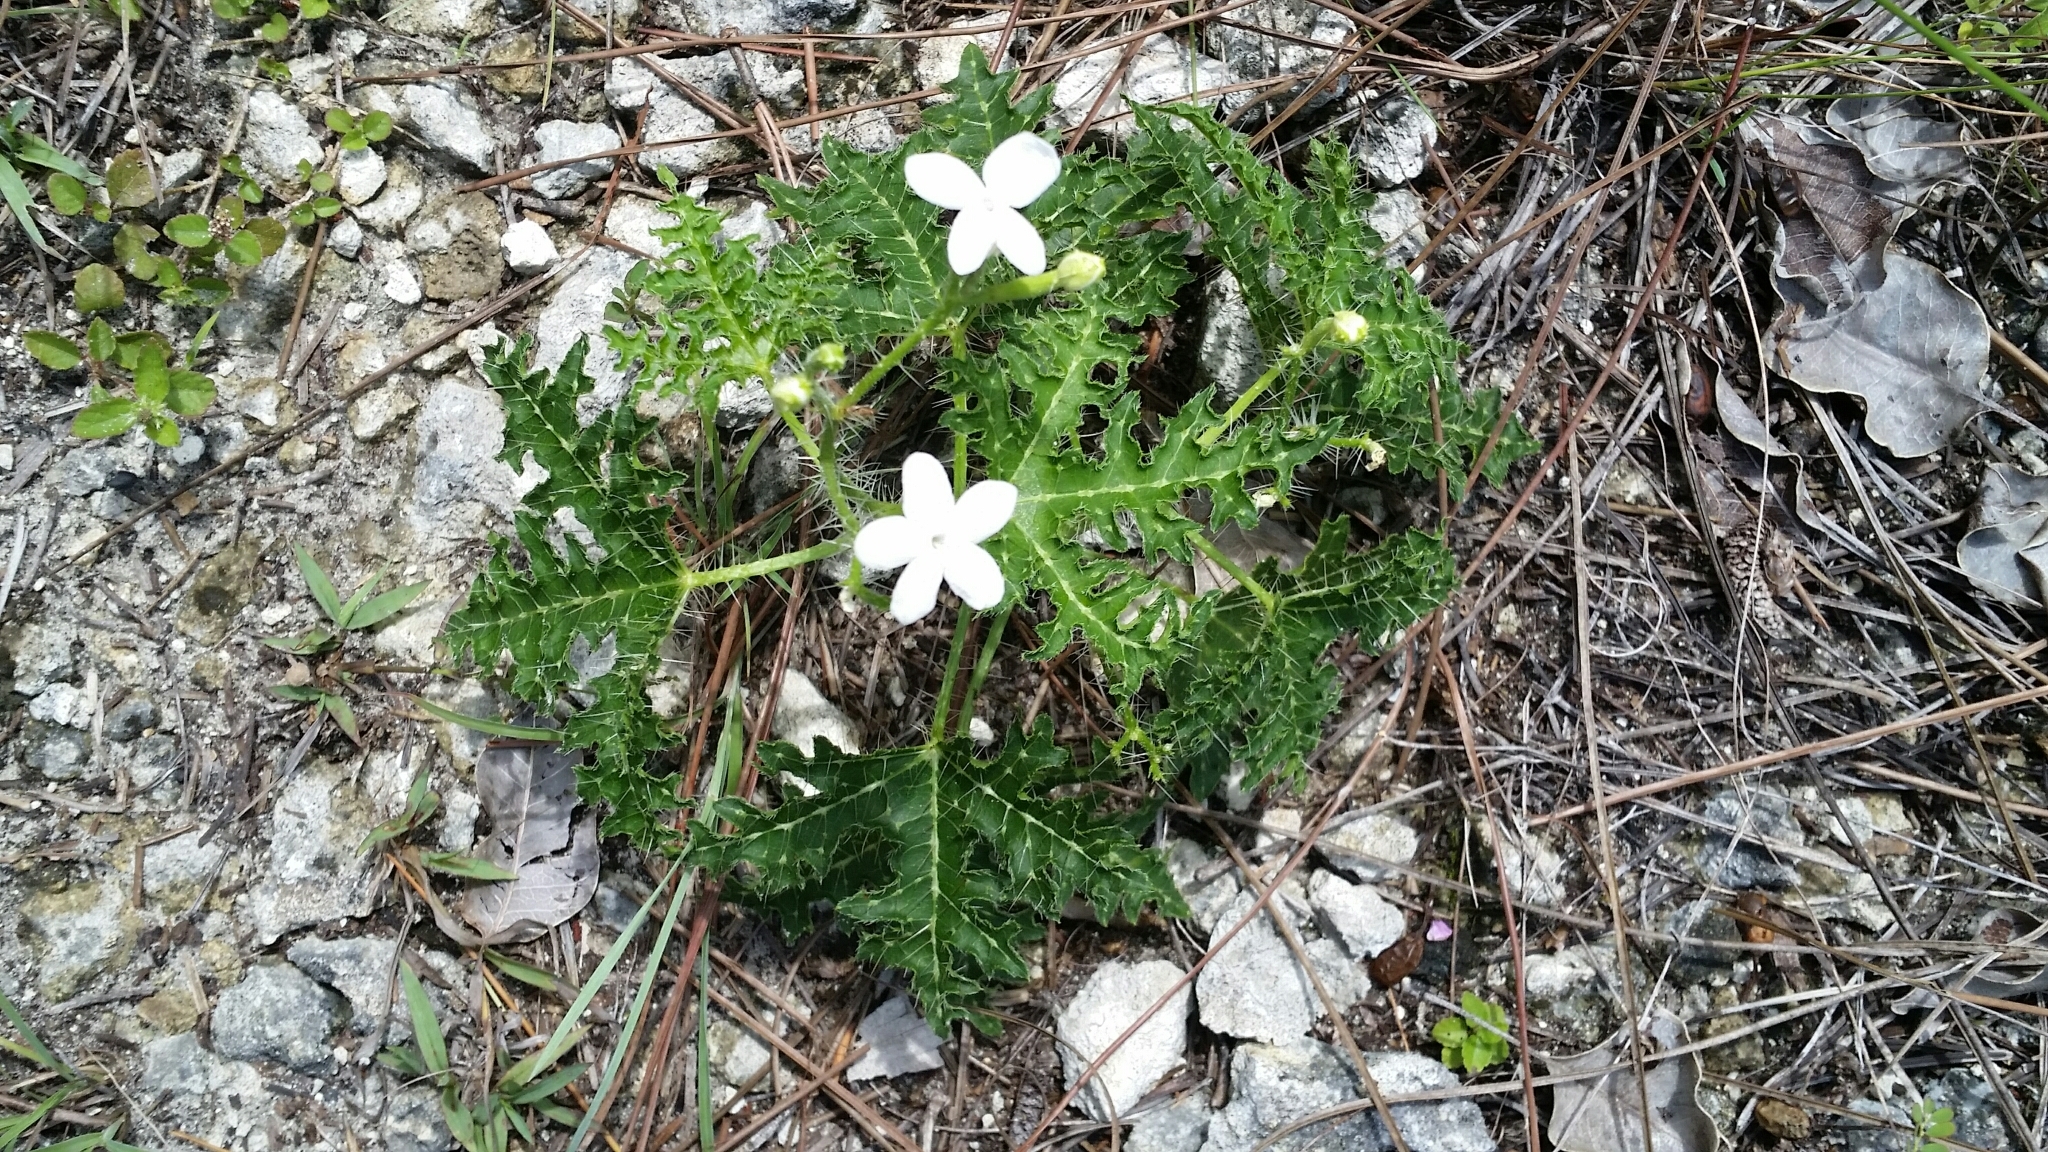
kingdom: Plantae
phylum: Tracheophyta
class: Magnoliopsida
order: Malpighiales
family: Euphorbiaceae
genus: Cnidoscolus
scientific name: Cnidoscolus stimulosus
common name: Bull-nettle
